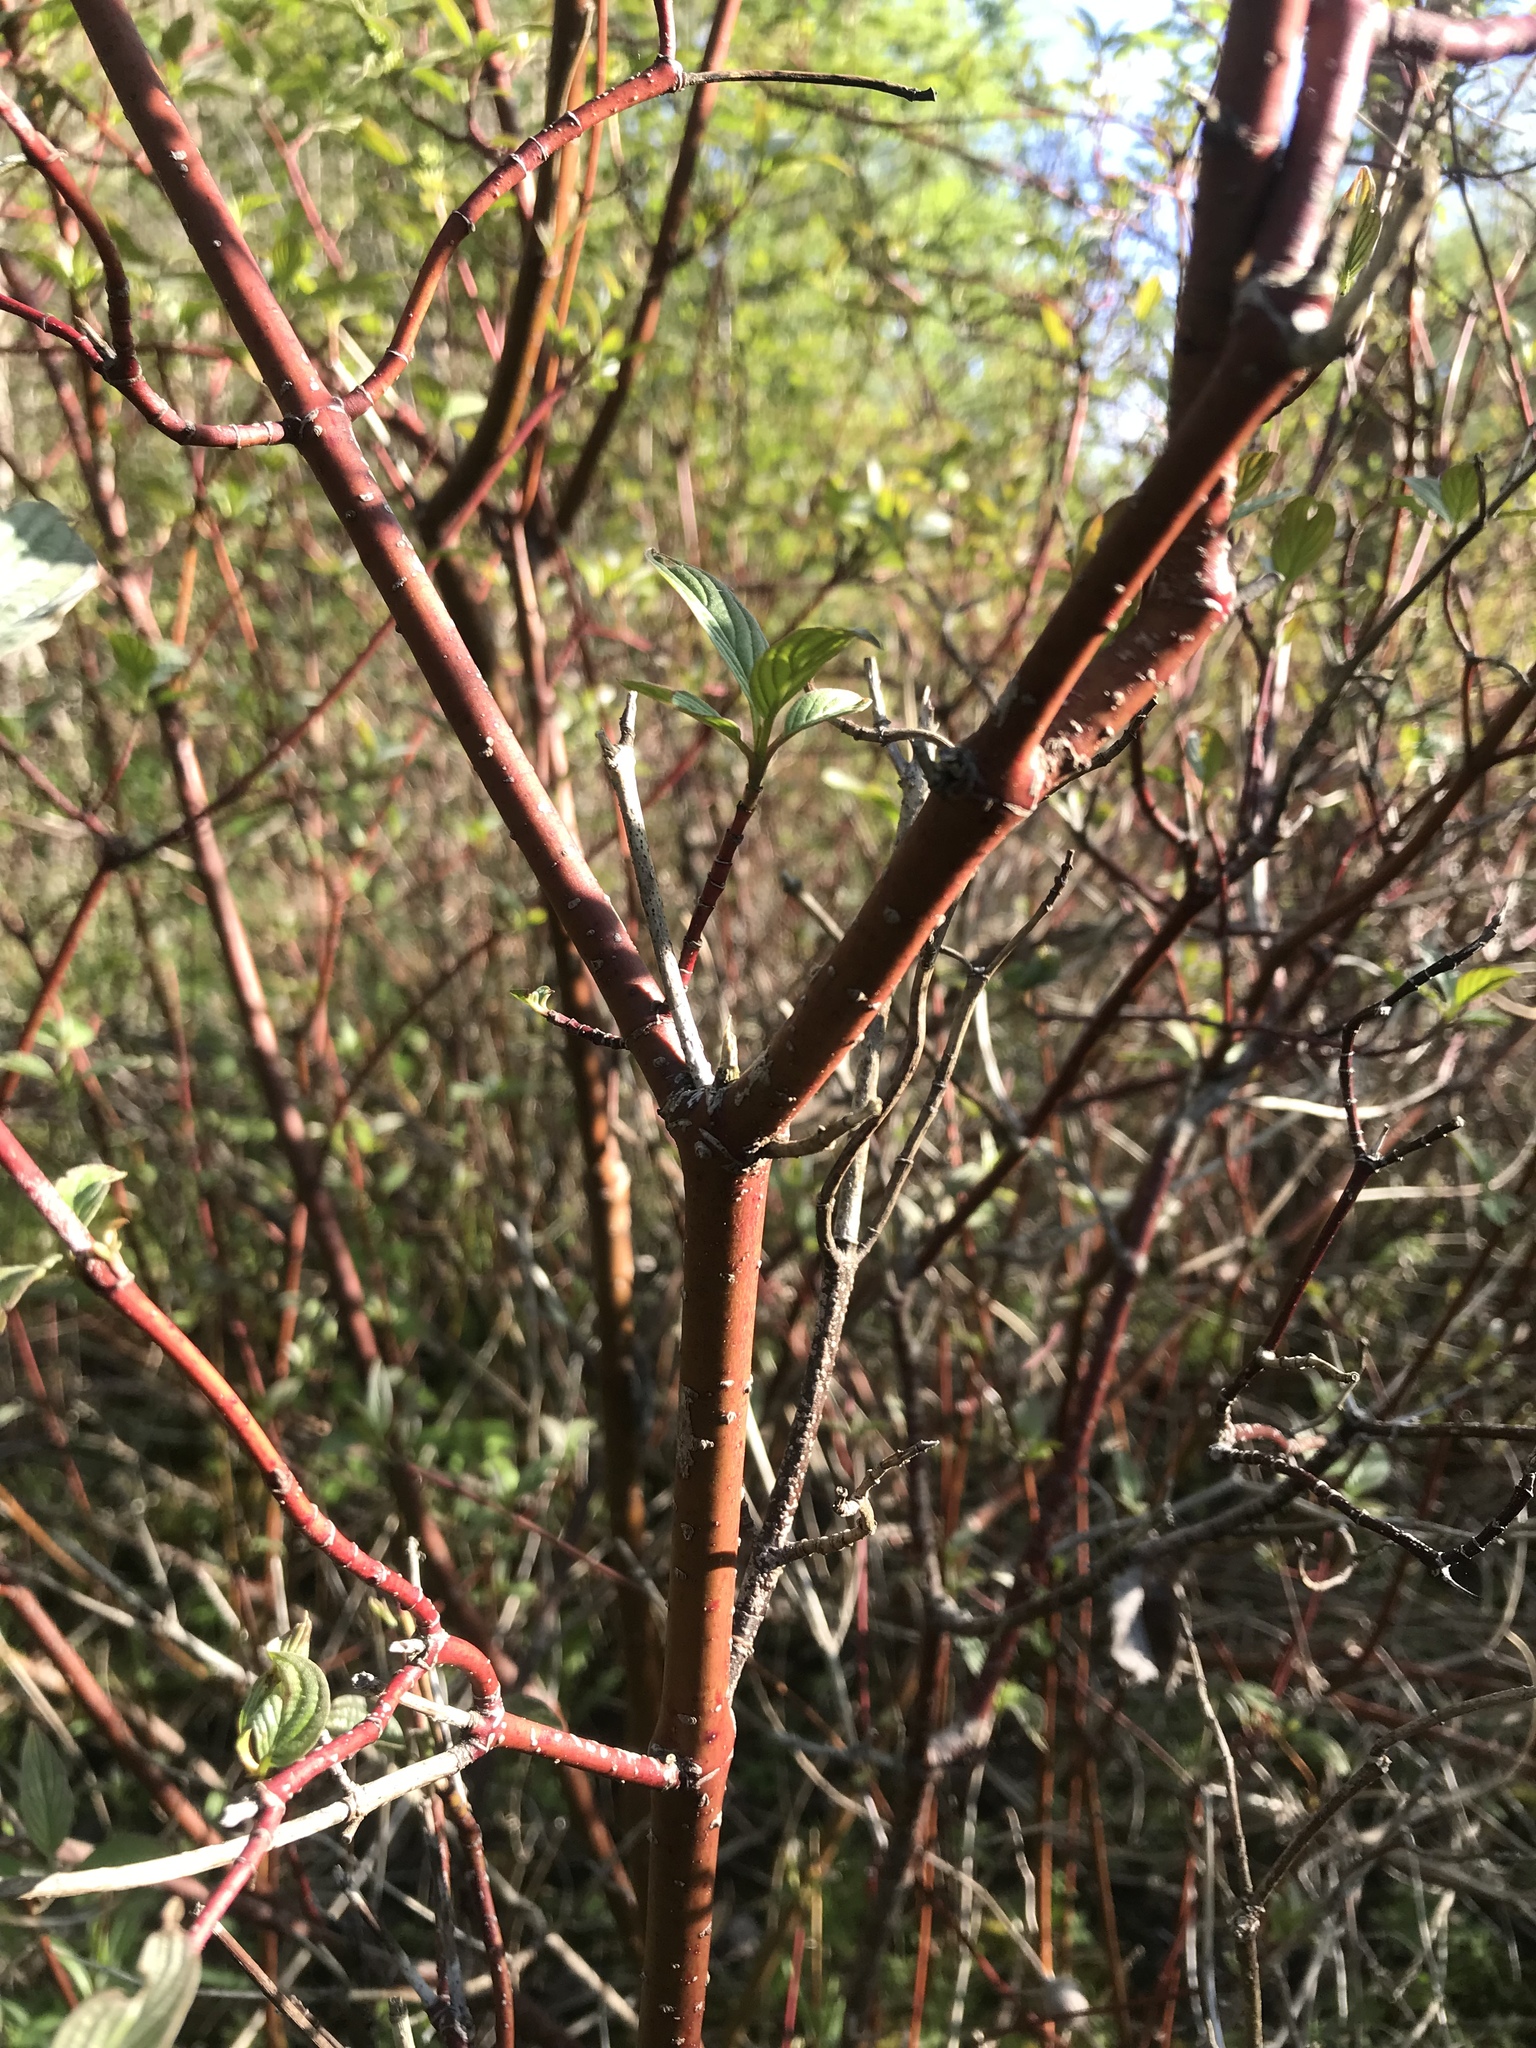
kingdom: Plantae
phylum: Tracheophyta
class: Magnoliopsida
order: Cornales
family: Cornaceae
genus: Cornus
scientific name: Cornus sericea
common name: Red-osier dogwood
